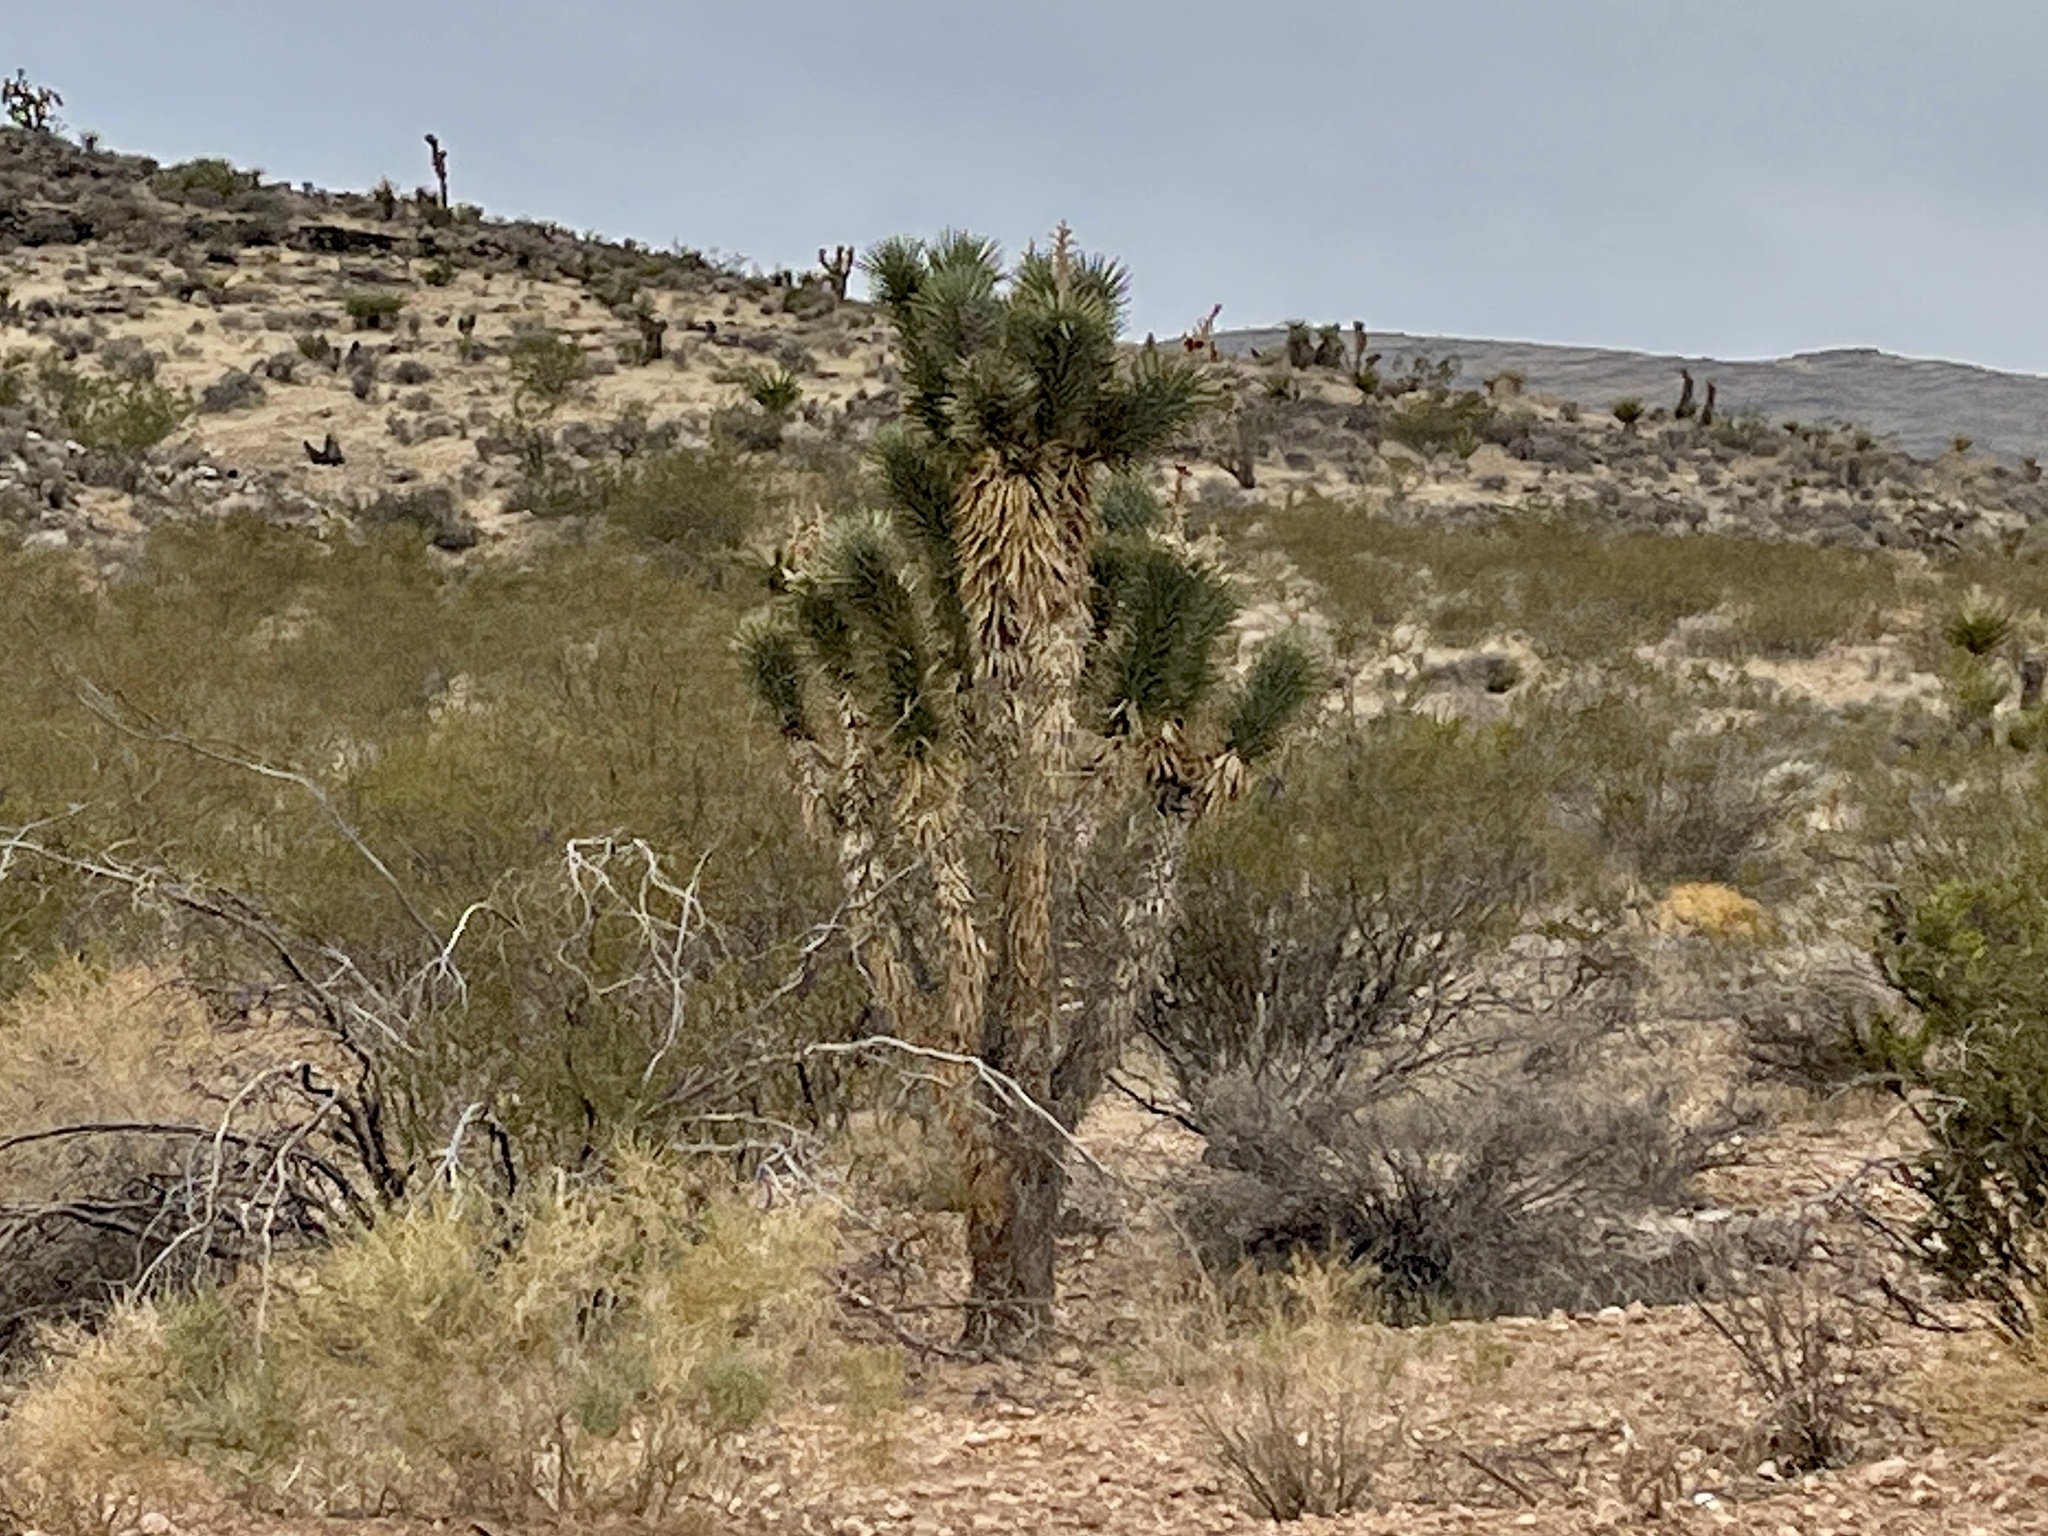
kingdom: Plantae
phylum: Tracheophyta
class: Liliopsida
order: Asparagales
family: Asparagaceae
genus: Yucca
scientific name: Yucca brevifolia
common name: Joshua tree
